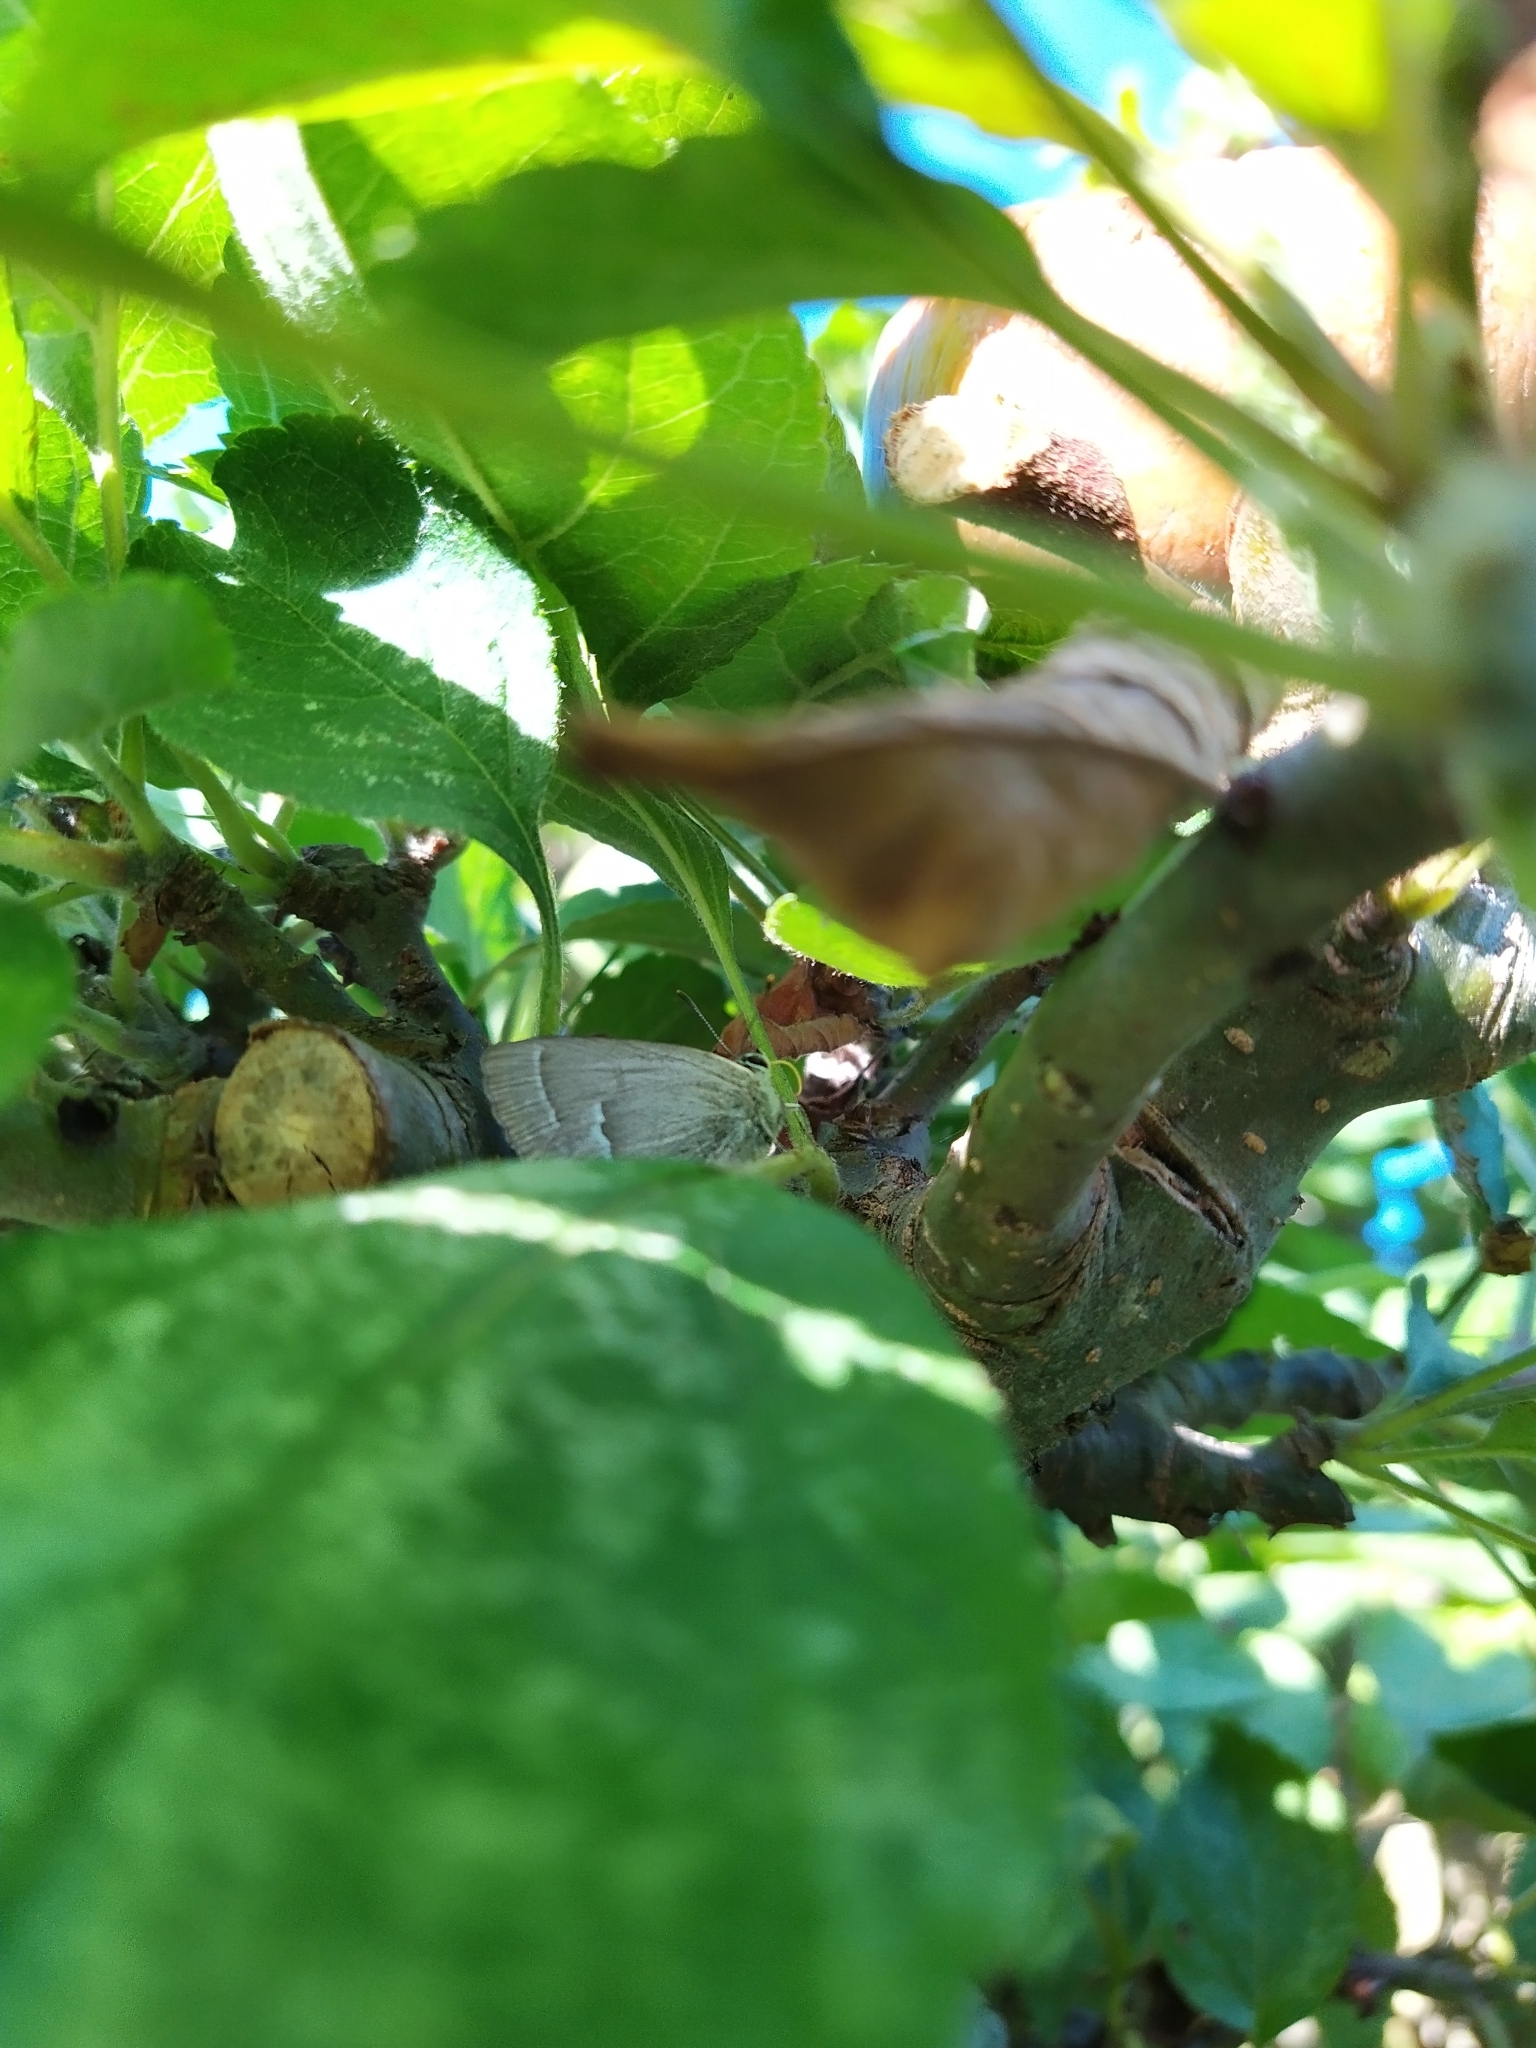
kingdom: Animalia
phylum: Arthropoda
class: Insecta
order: Lepidoptera
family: Lycaenidae
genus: Quercusia
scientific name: Quercusia quercus
